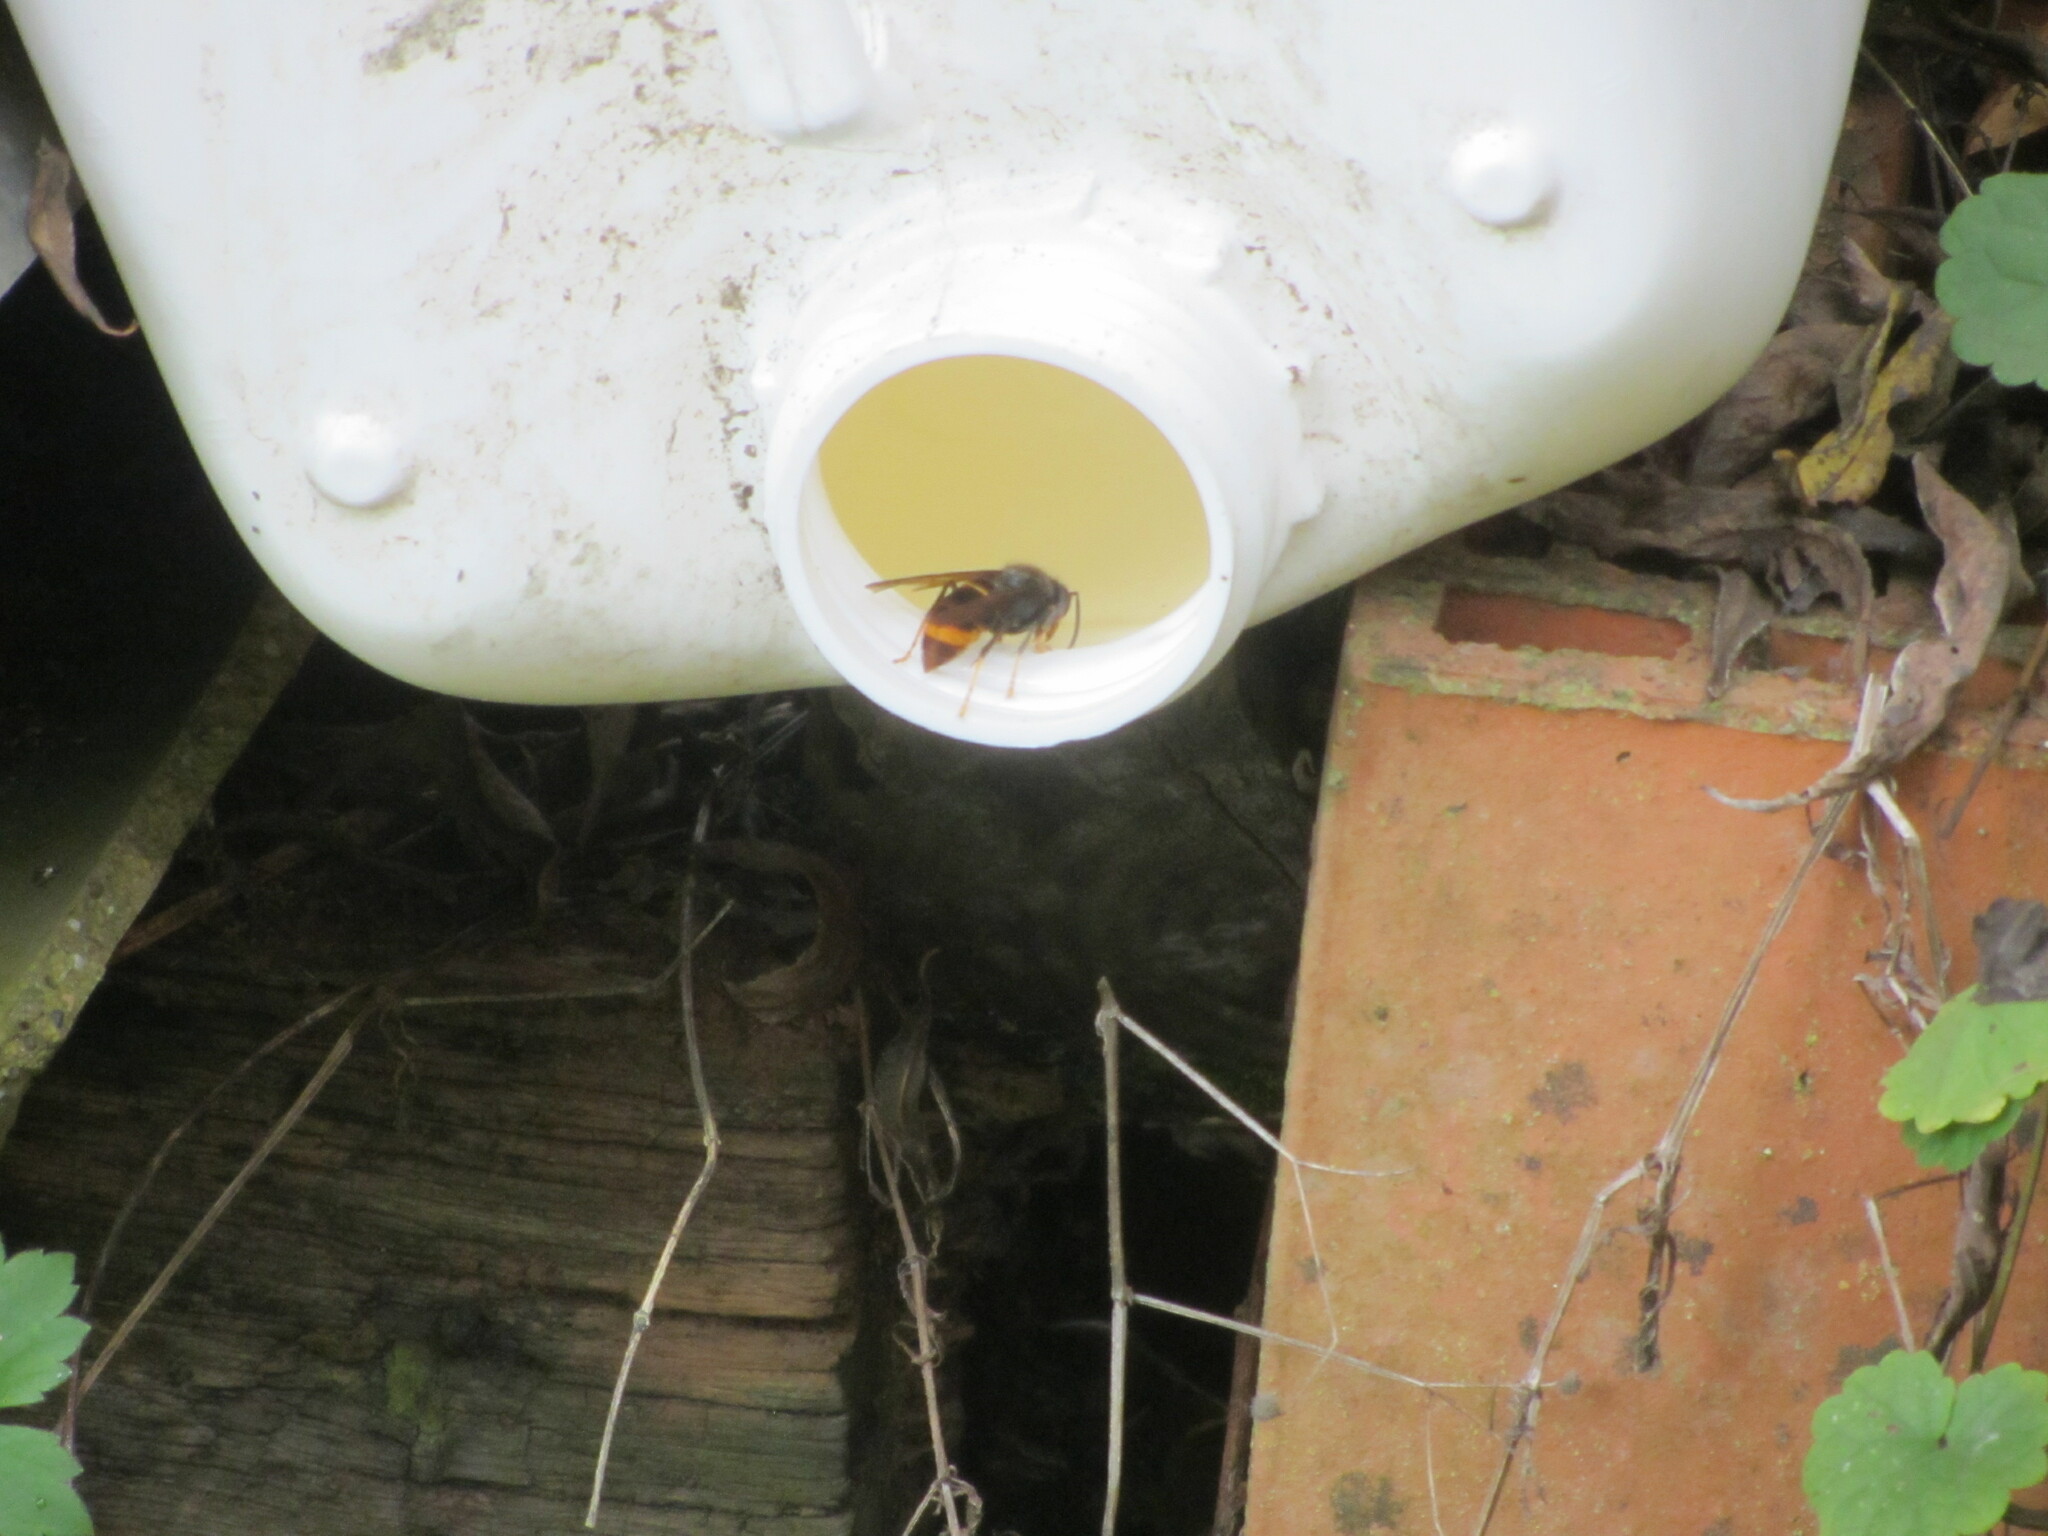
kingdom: Animalia
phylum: Arthropoda
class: Insecta
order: Hymenoptera
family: Vespidae
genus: Vespa
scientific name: Vespa velutina
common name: Asian hornet
